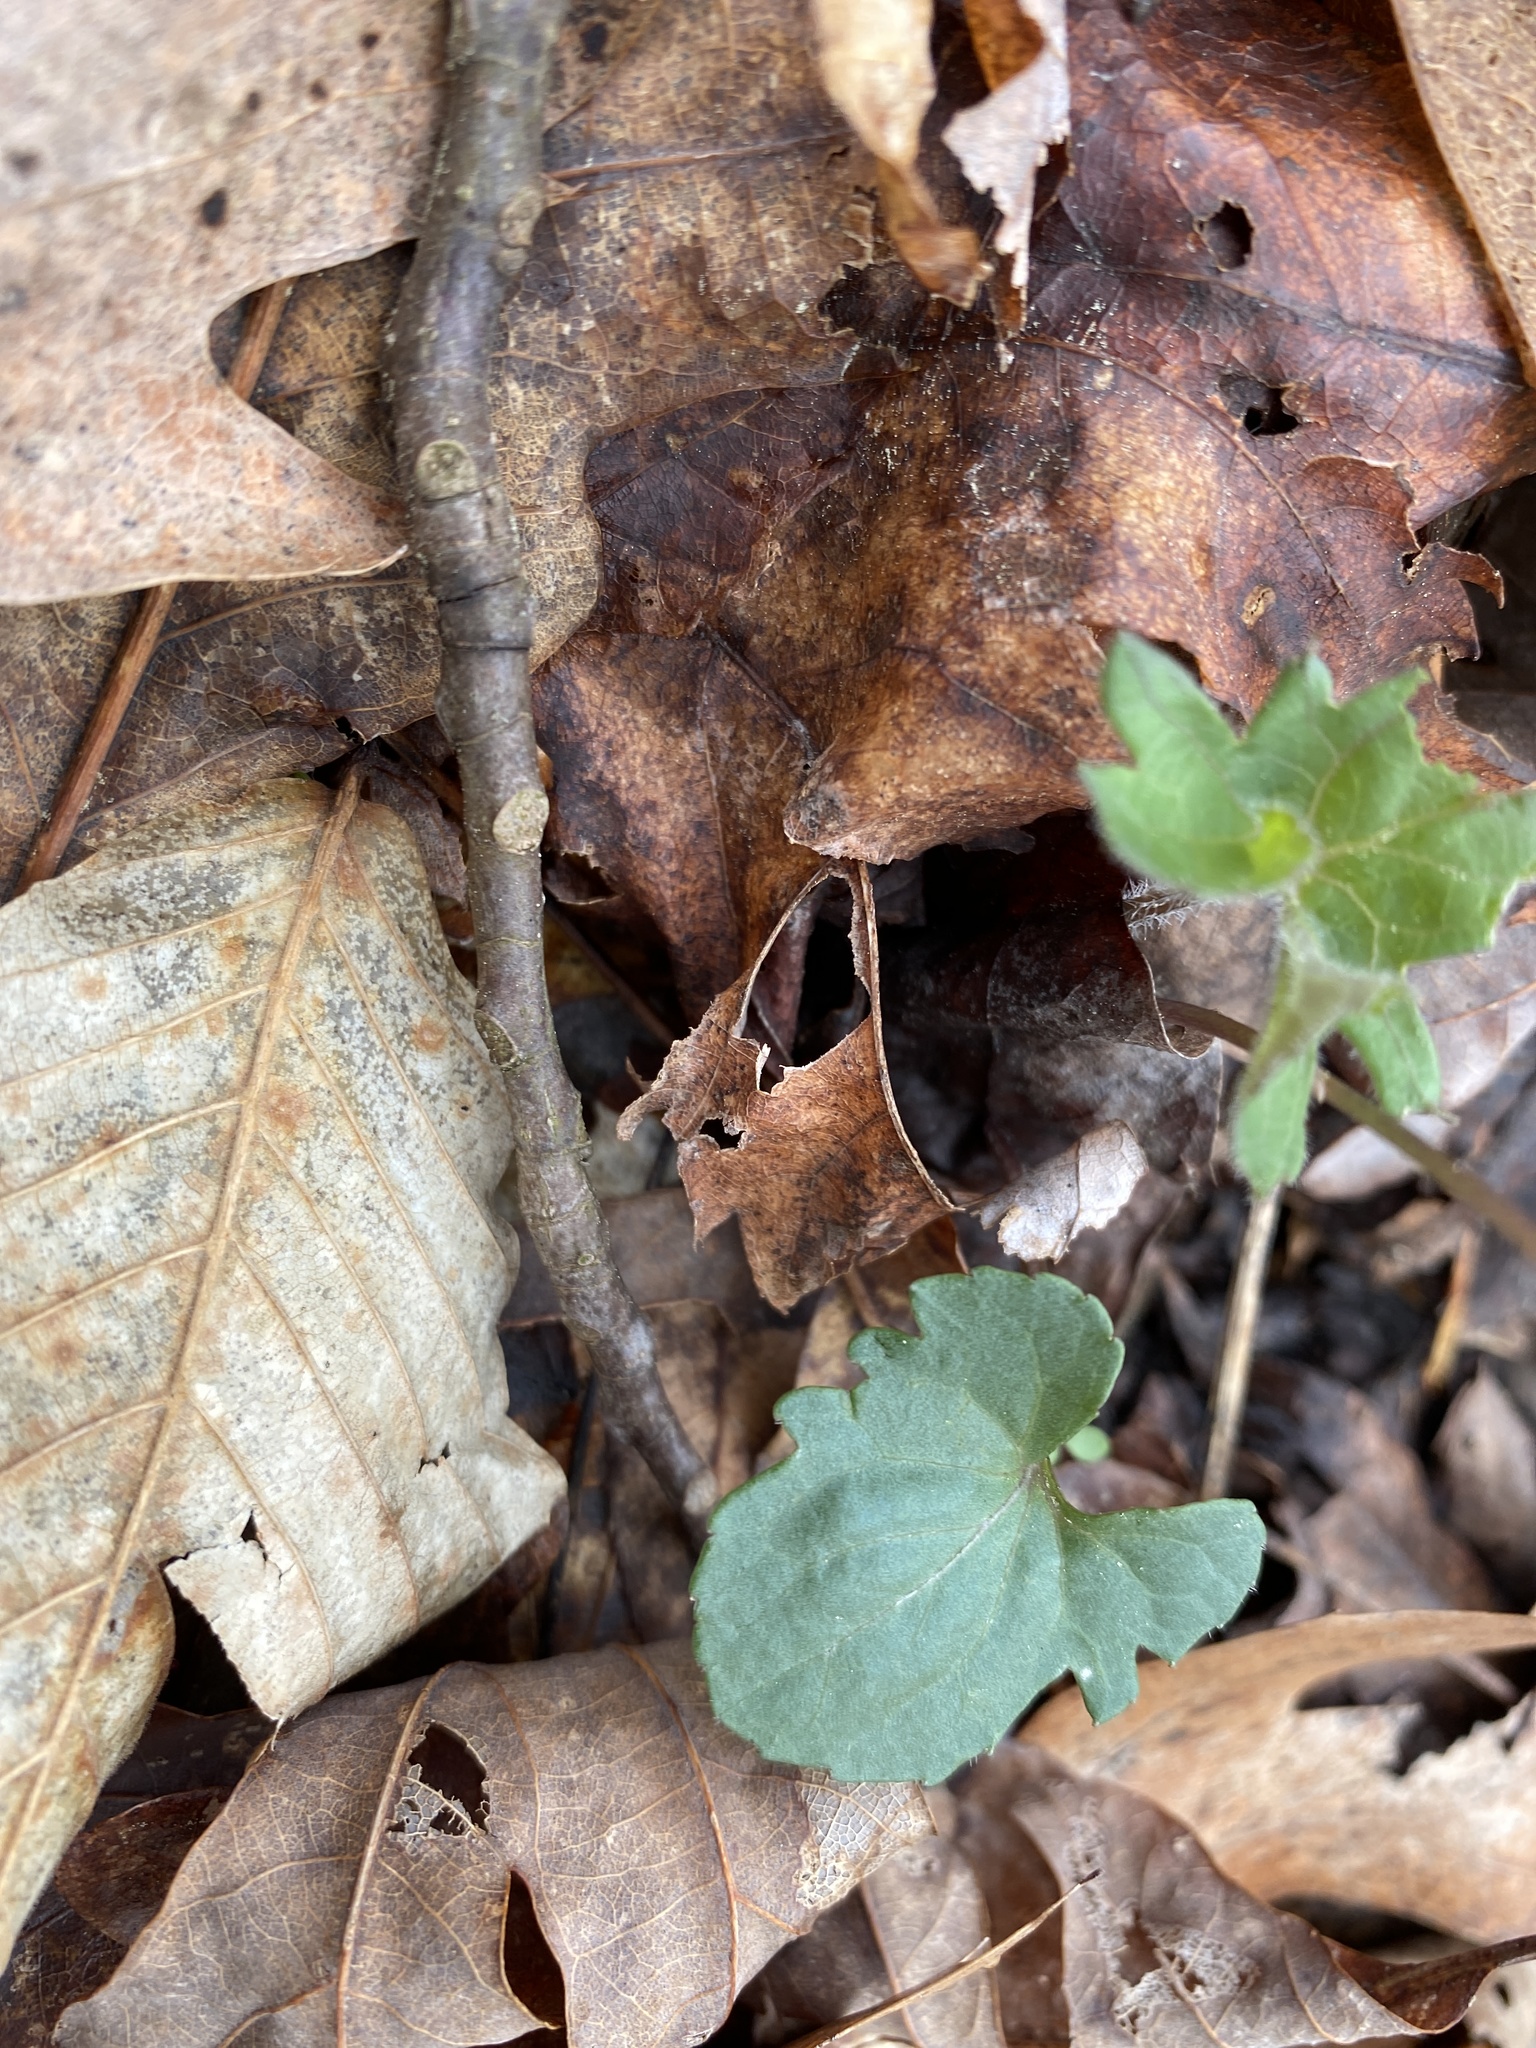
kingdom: Plantae
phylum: Tracheophyta
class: Magnoliopsida
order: Malpighiales
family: Violaceae
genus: Viola
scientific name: Viola palmata
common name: Early blue violet
